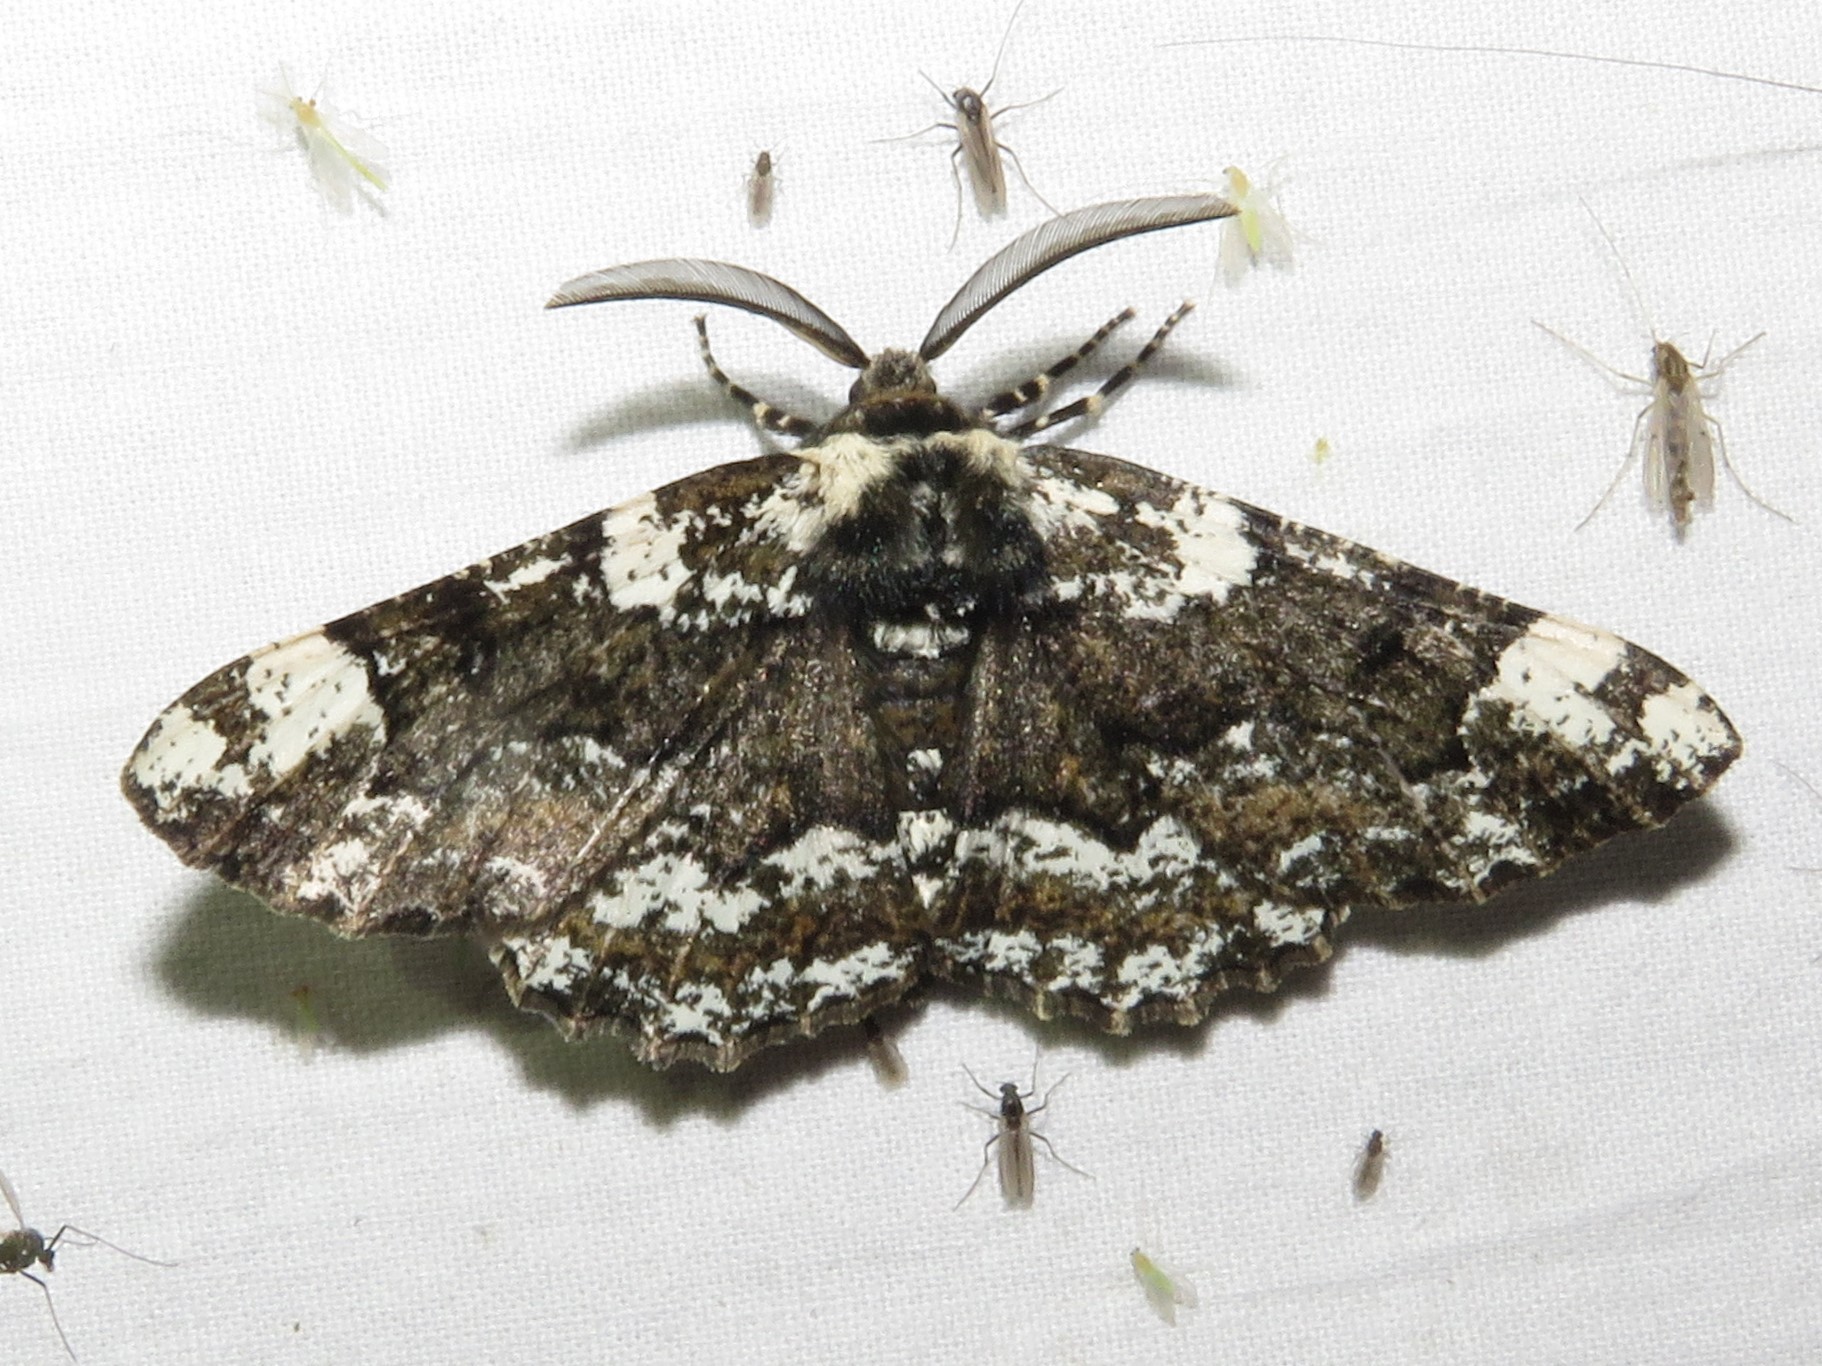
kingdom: Animalia
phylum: Arthropoda
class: Insecta
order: Lepidoptera
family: Geometridae
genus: Phaeoura
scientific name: Phaeoura quernaria
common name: Oak beauty
